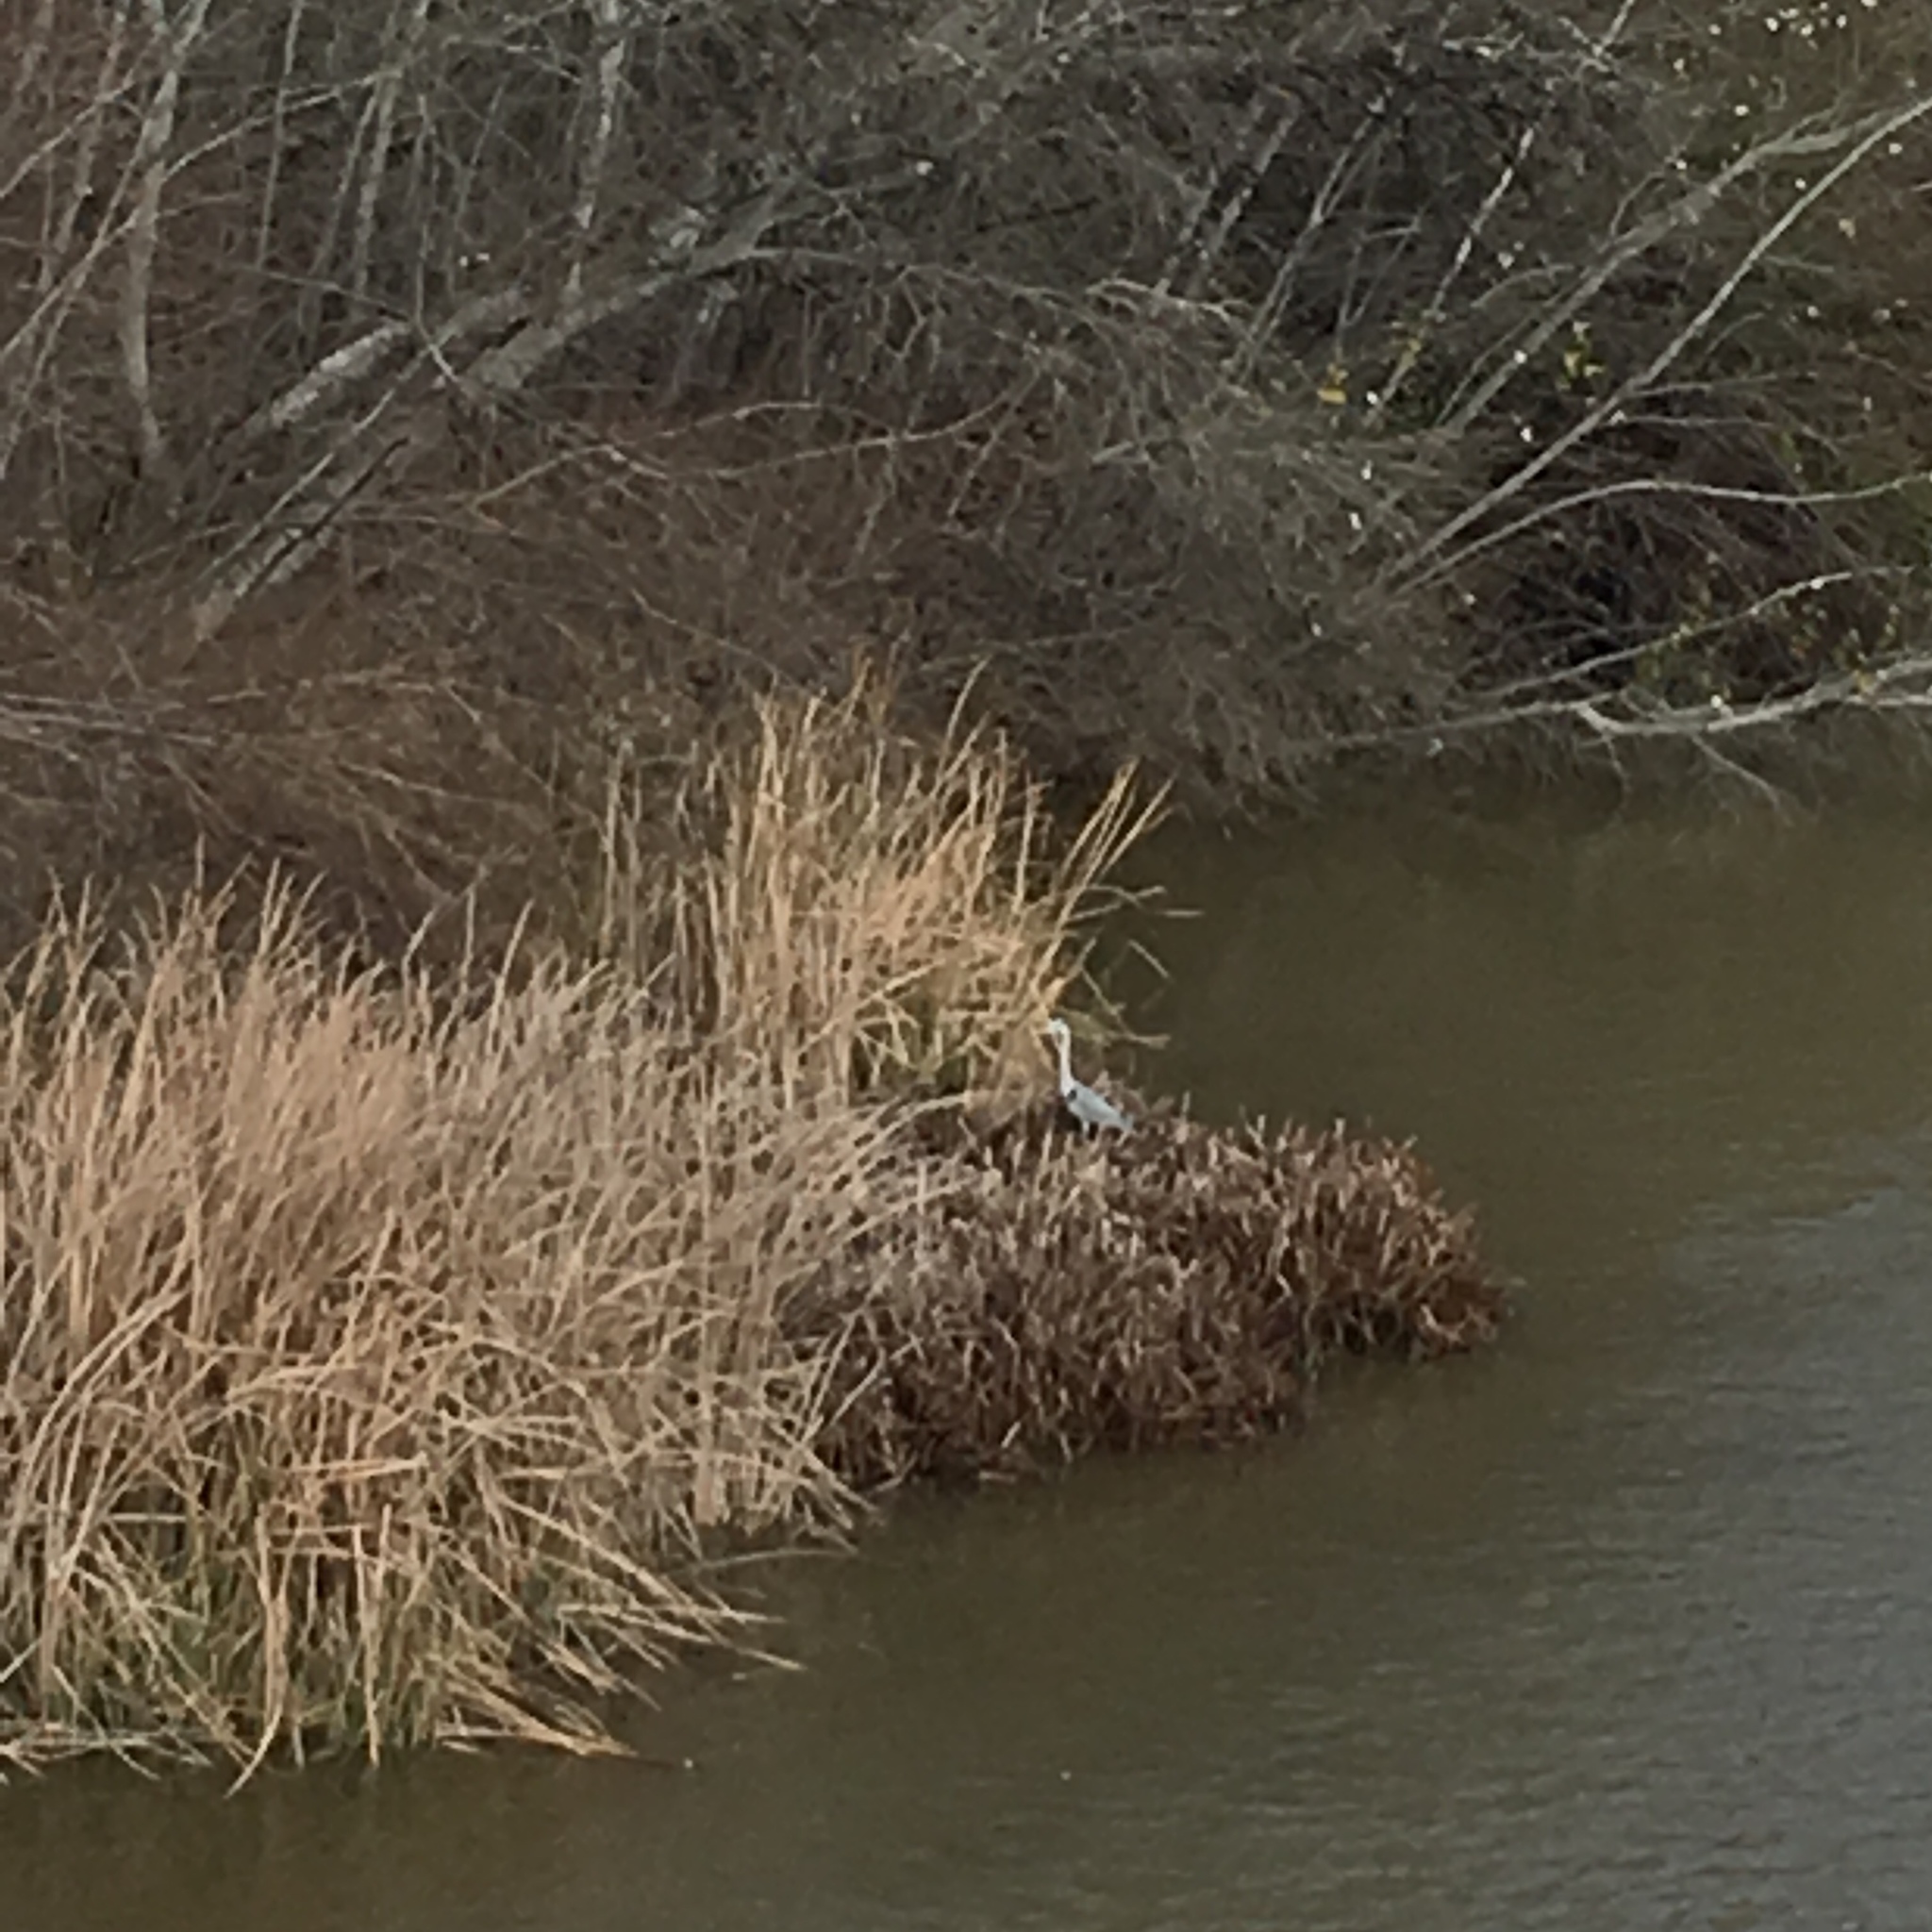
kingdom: Animalia
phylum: Chordata
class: Aves
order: Pelecaniformes
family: Ardeidae
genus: Ardea
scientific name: Ardea cinerea
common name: Grey heron
